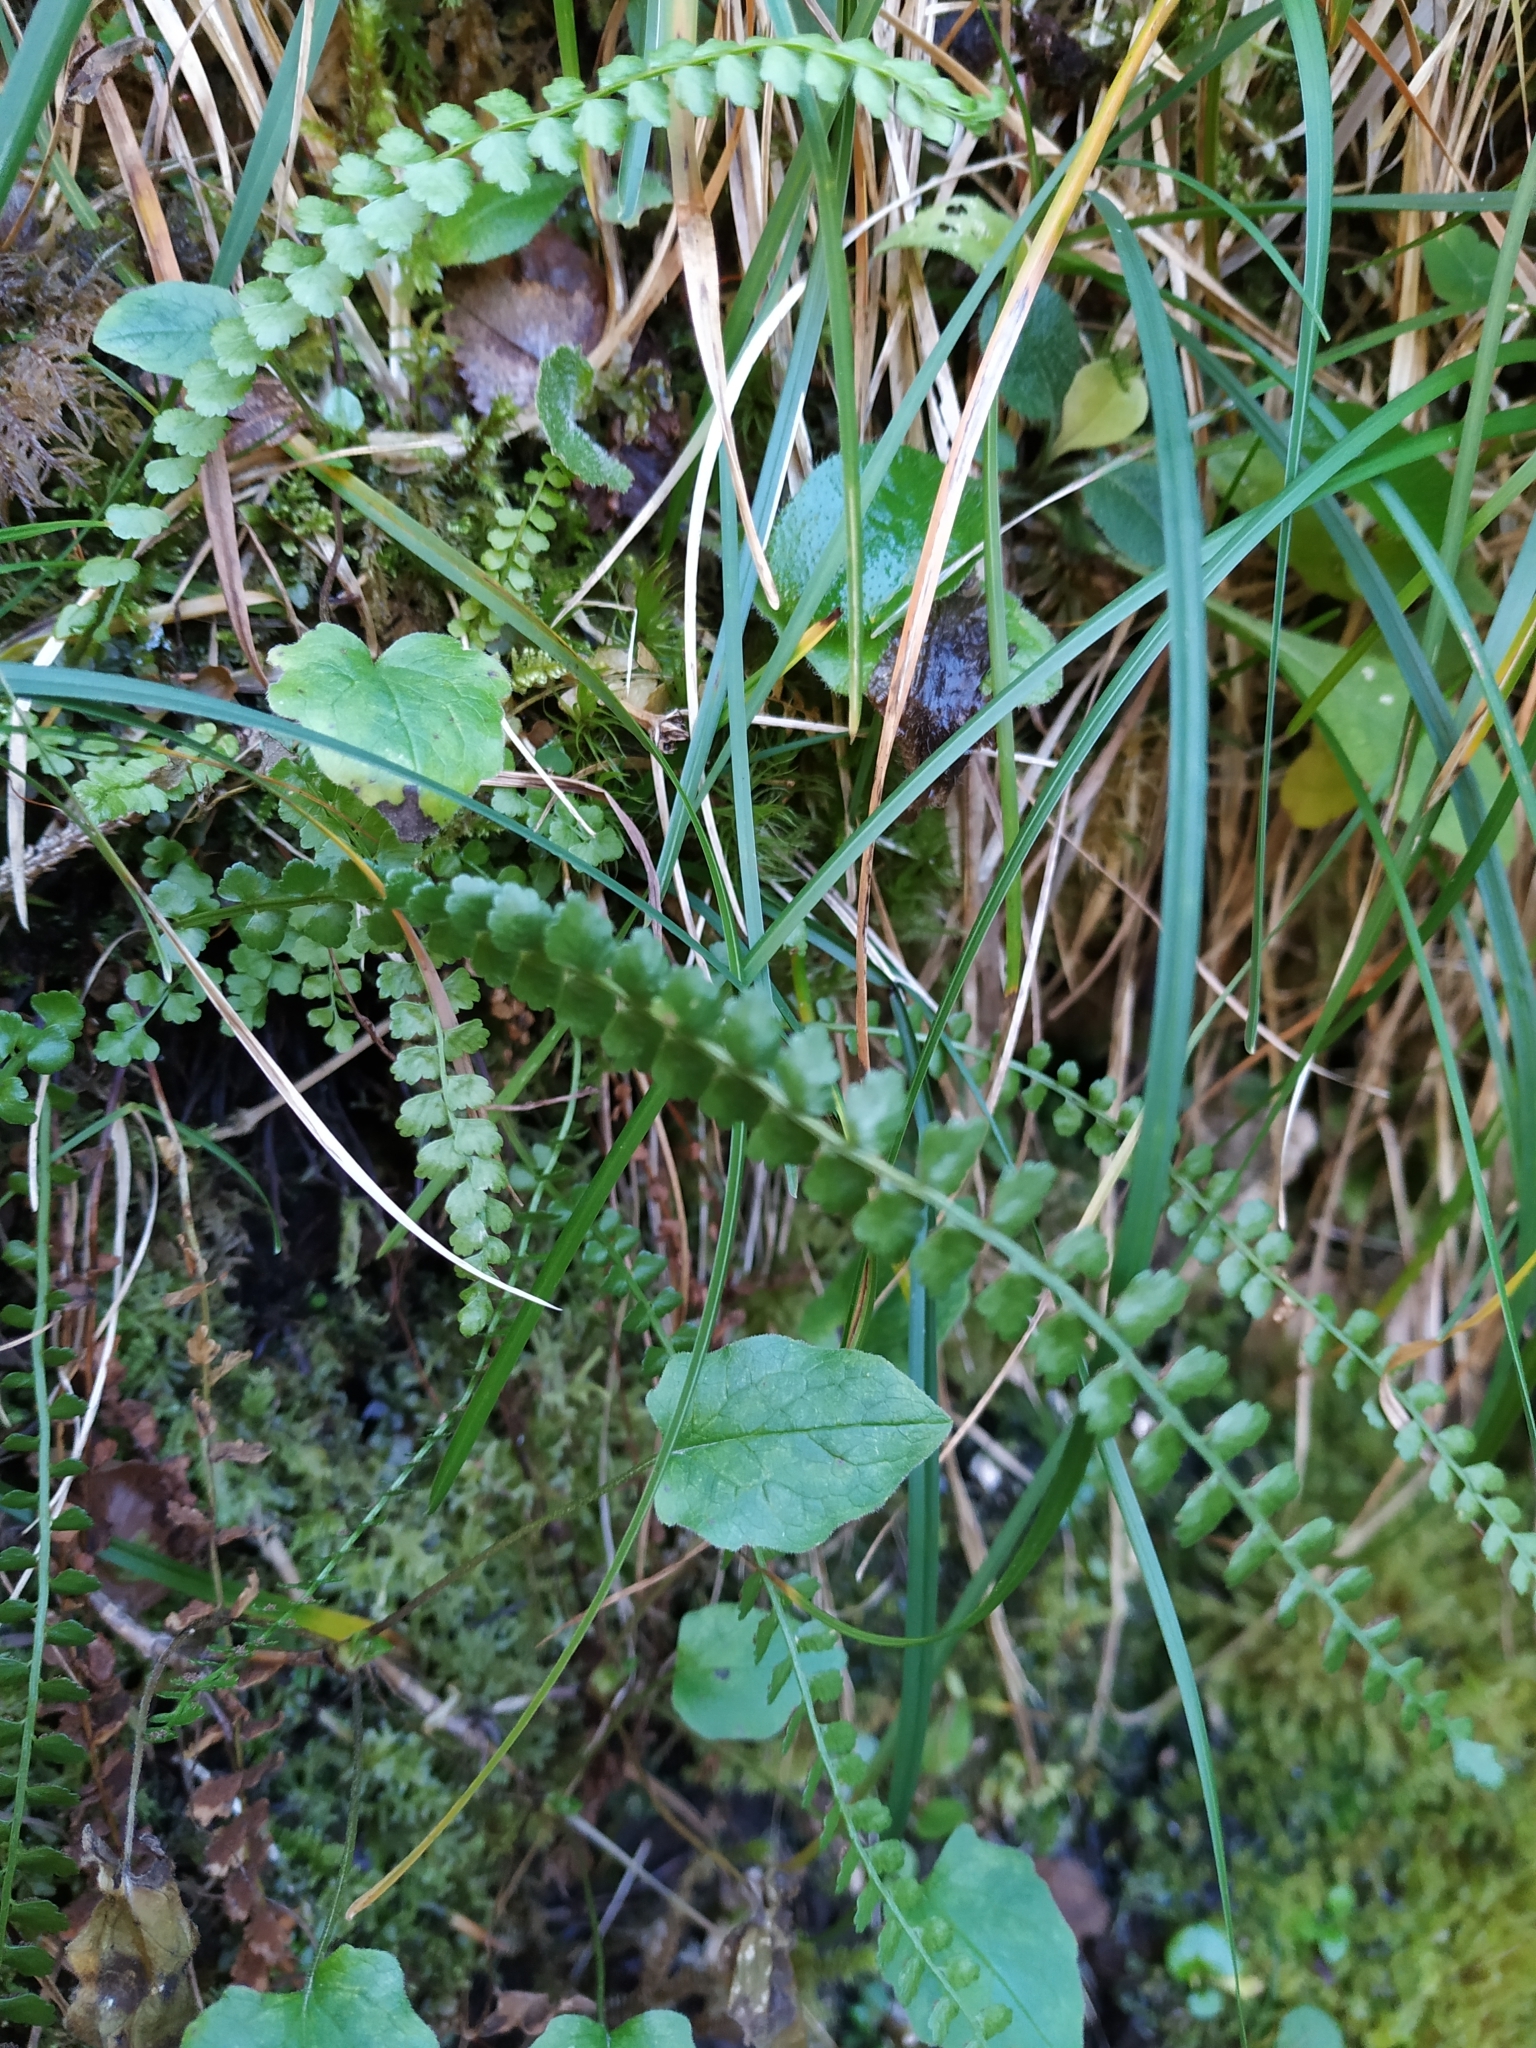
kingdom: Plantae
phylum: Tracheophyta
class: Polypodiopsida
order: Polypodiales
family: Aspleniaceae
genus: Asplenium
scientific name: Asplenium viride
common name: Green spleenwort
